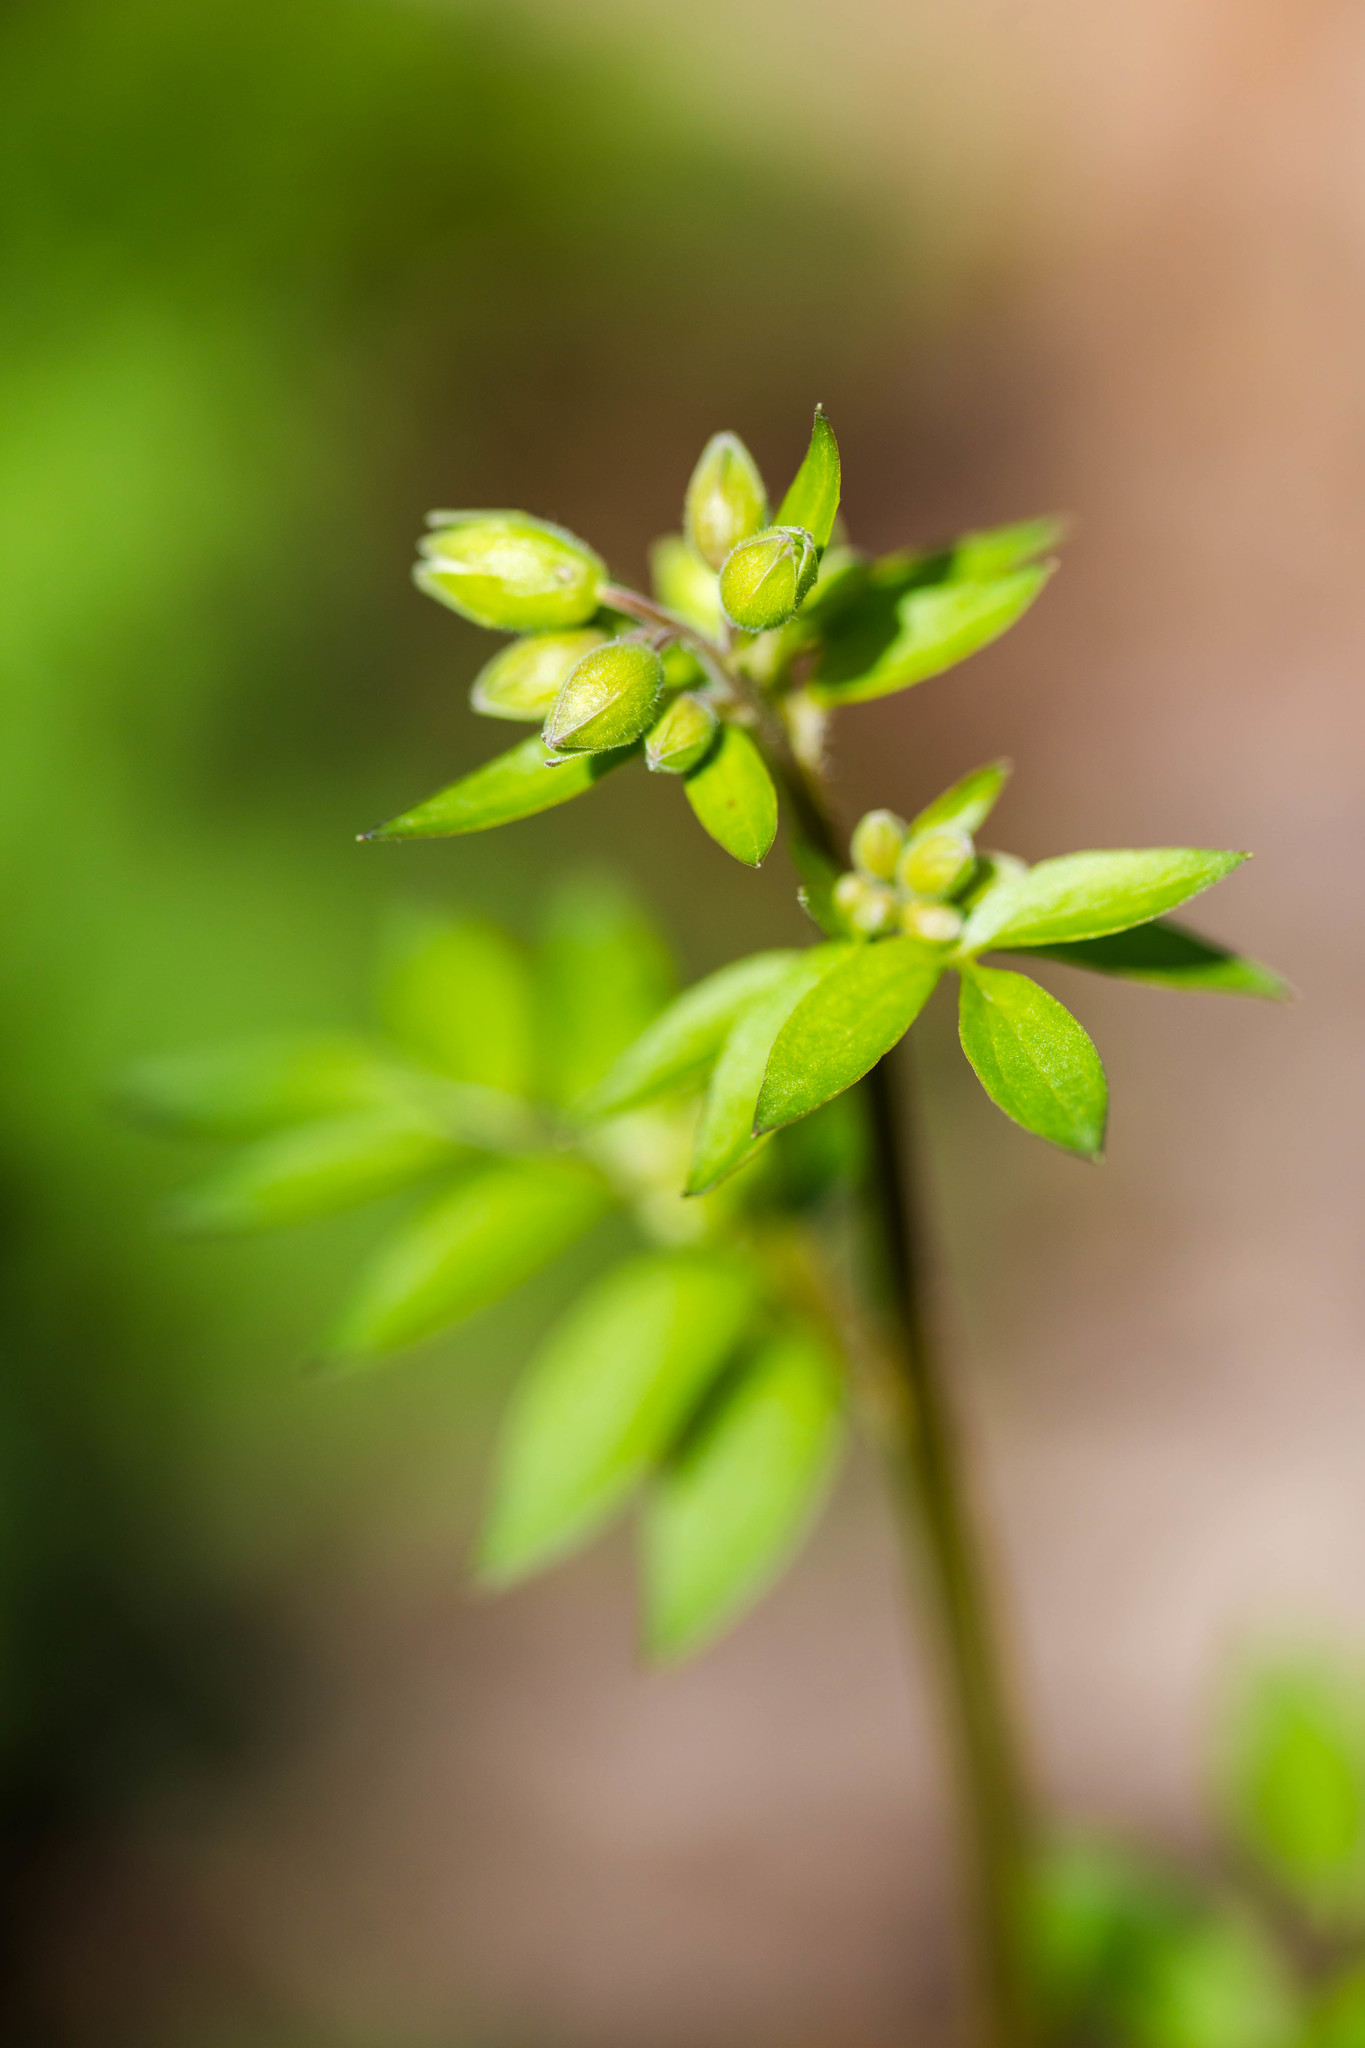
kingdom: Plantae
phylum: Tracheophyta
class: Magnoliopsida
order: Ericales
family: Polemoniaceae
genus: Polemonium
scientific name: Polemonium reptans
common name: Creeping jacob's-ladder
